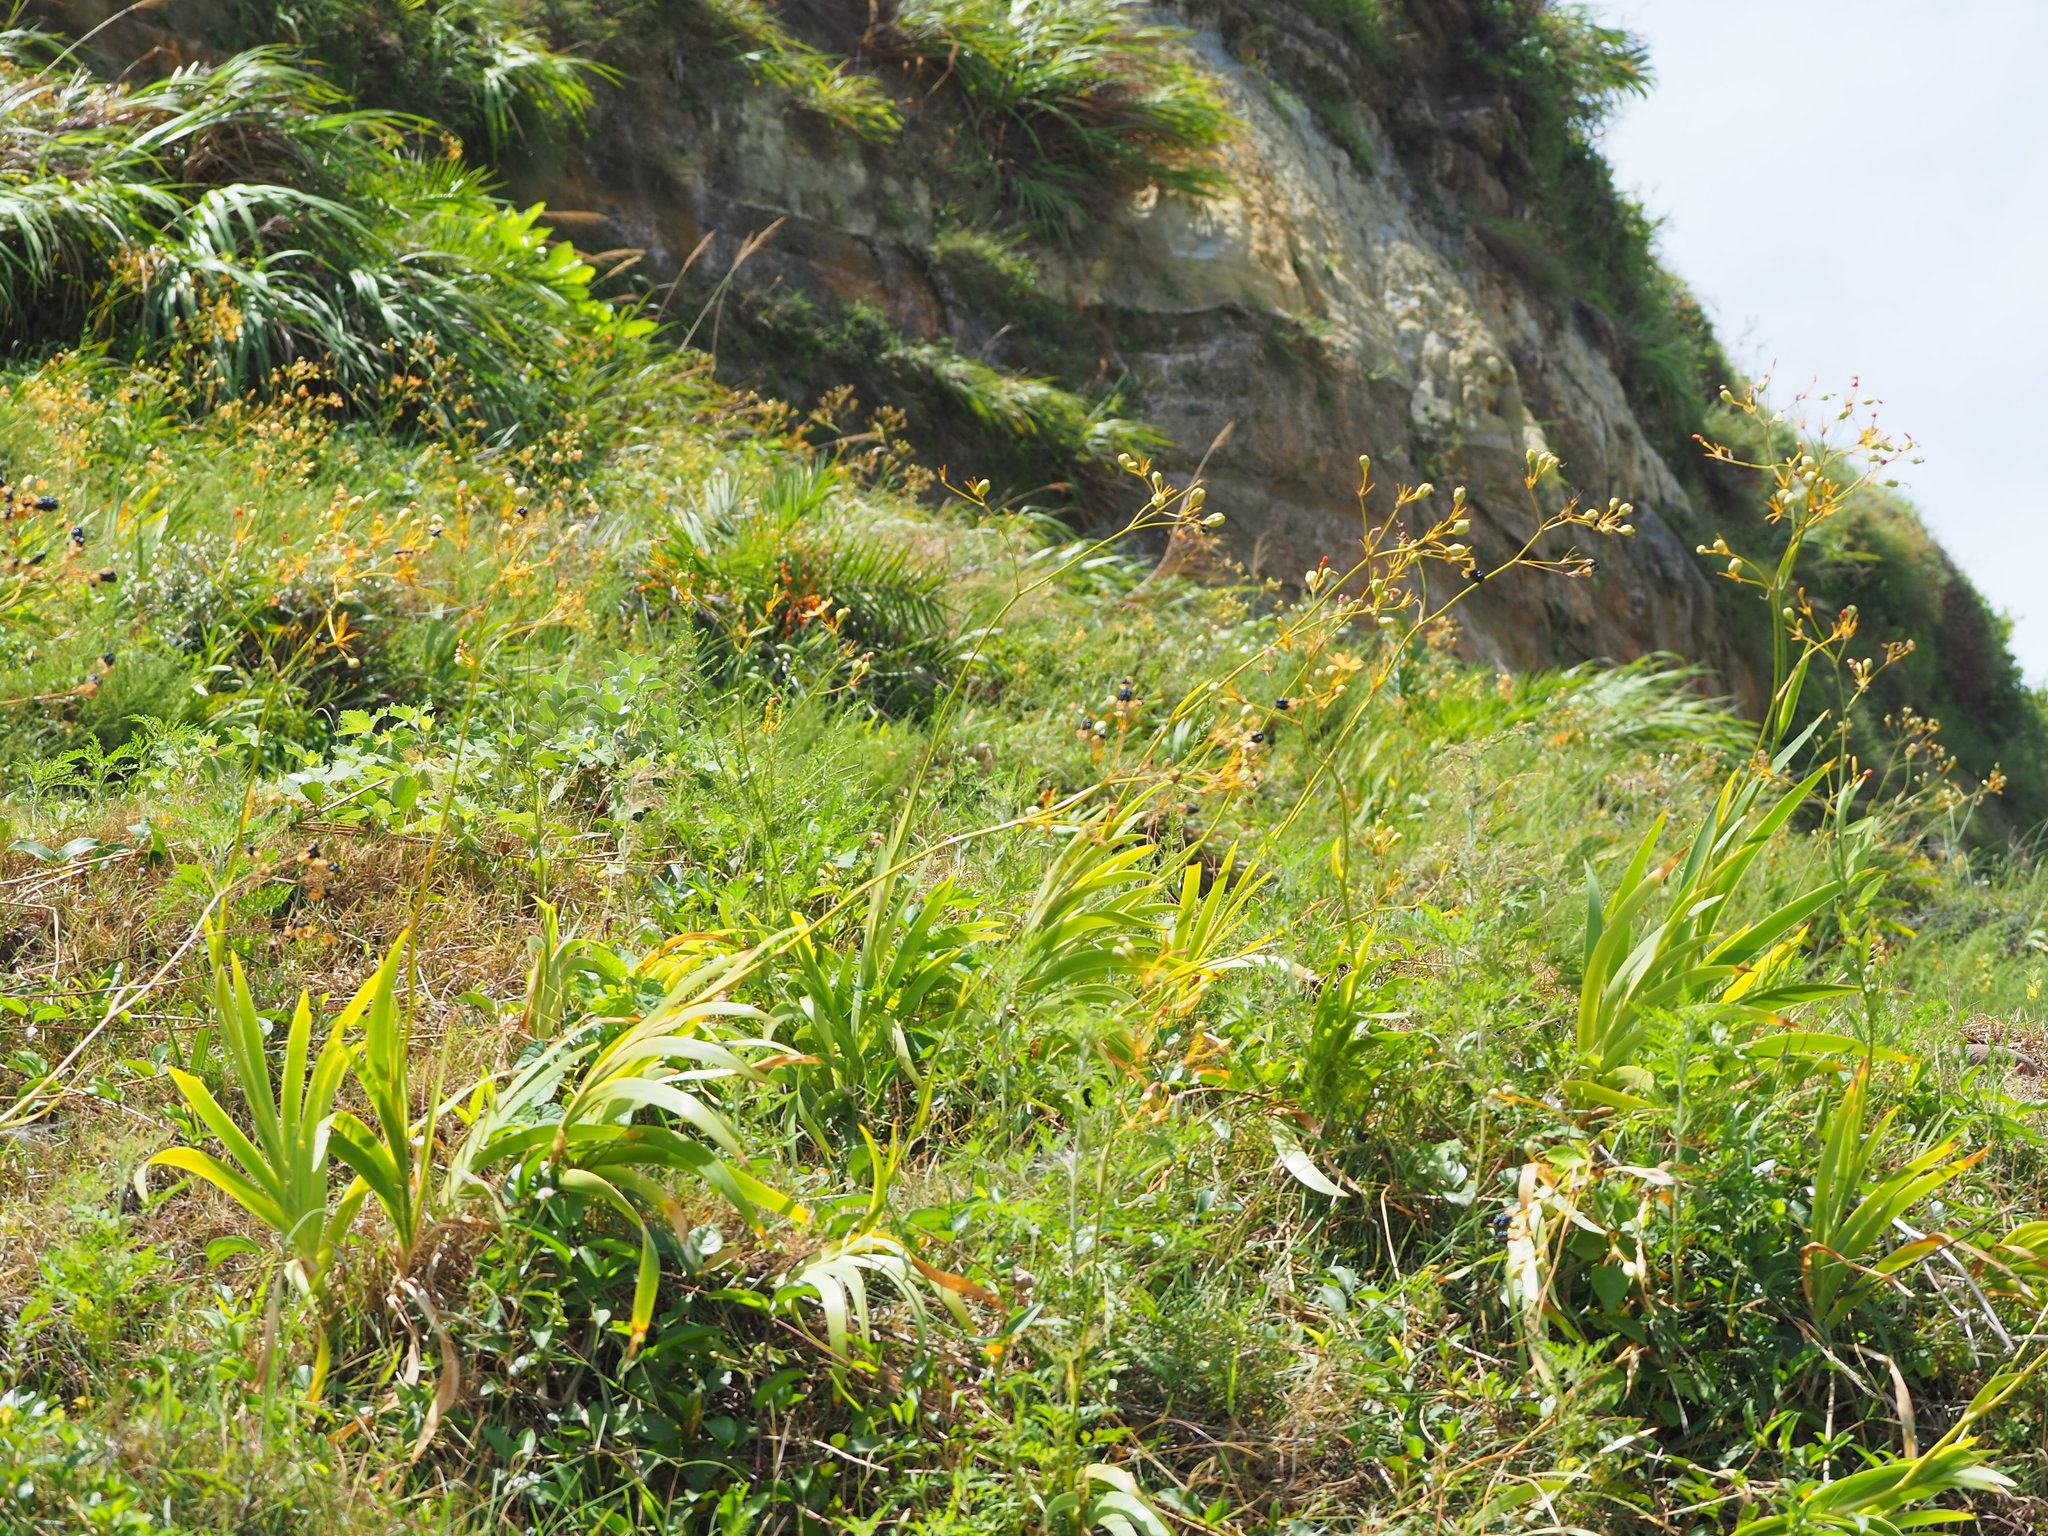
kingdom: Plantae
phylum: Tracheophyta
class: Liliopsida
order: Asparagales
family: Iridaceae
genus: Iris
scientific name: Iris domestica
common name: Belamcanda
